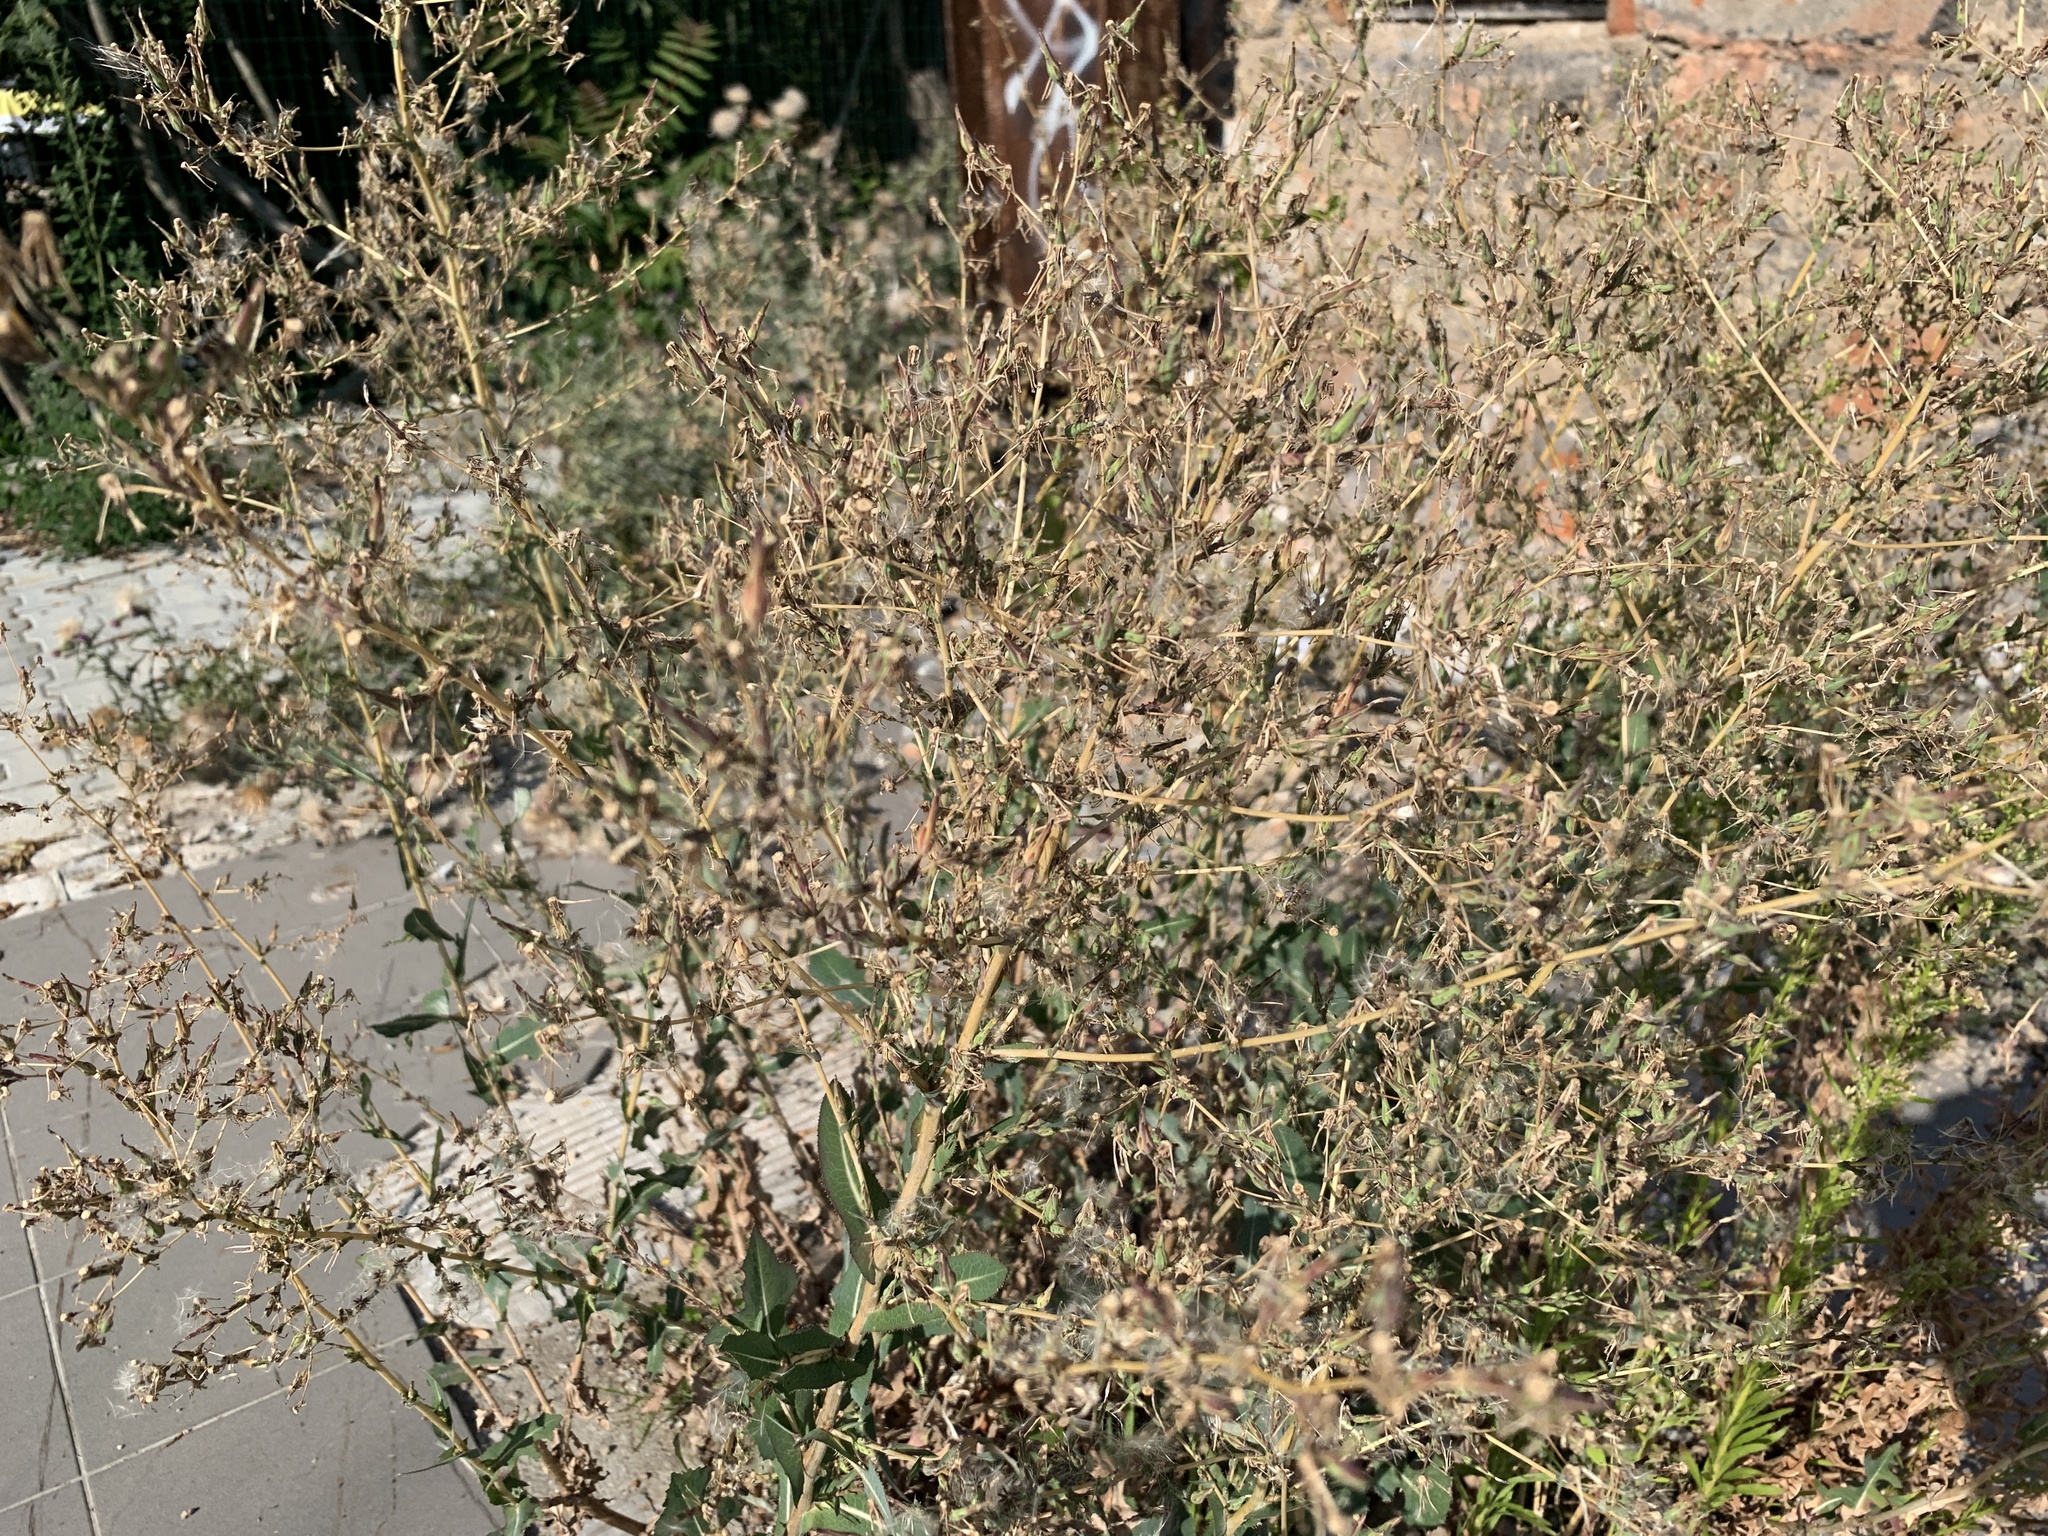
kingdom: Plantae
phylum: Tracheophyta
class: Magnoliopsida
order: Asterales
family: Asteraceae
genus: Lactuca
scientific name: Lactuca serriola
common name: Prickly lettuce
